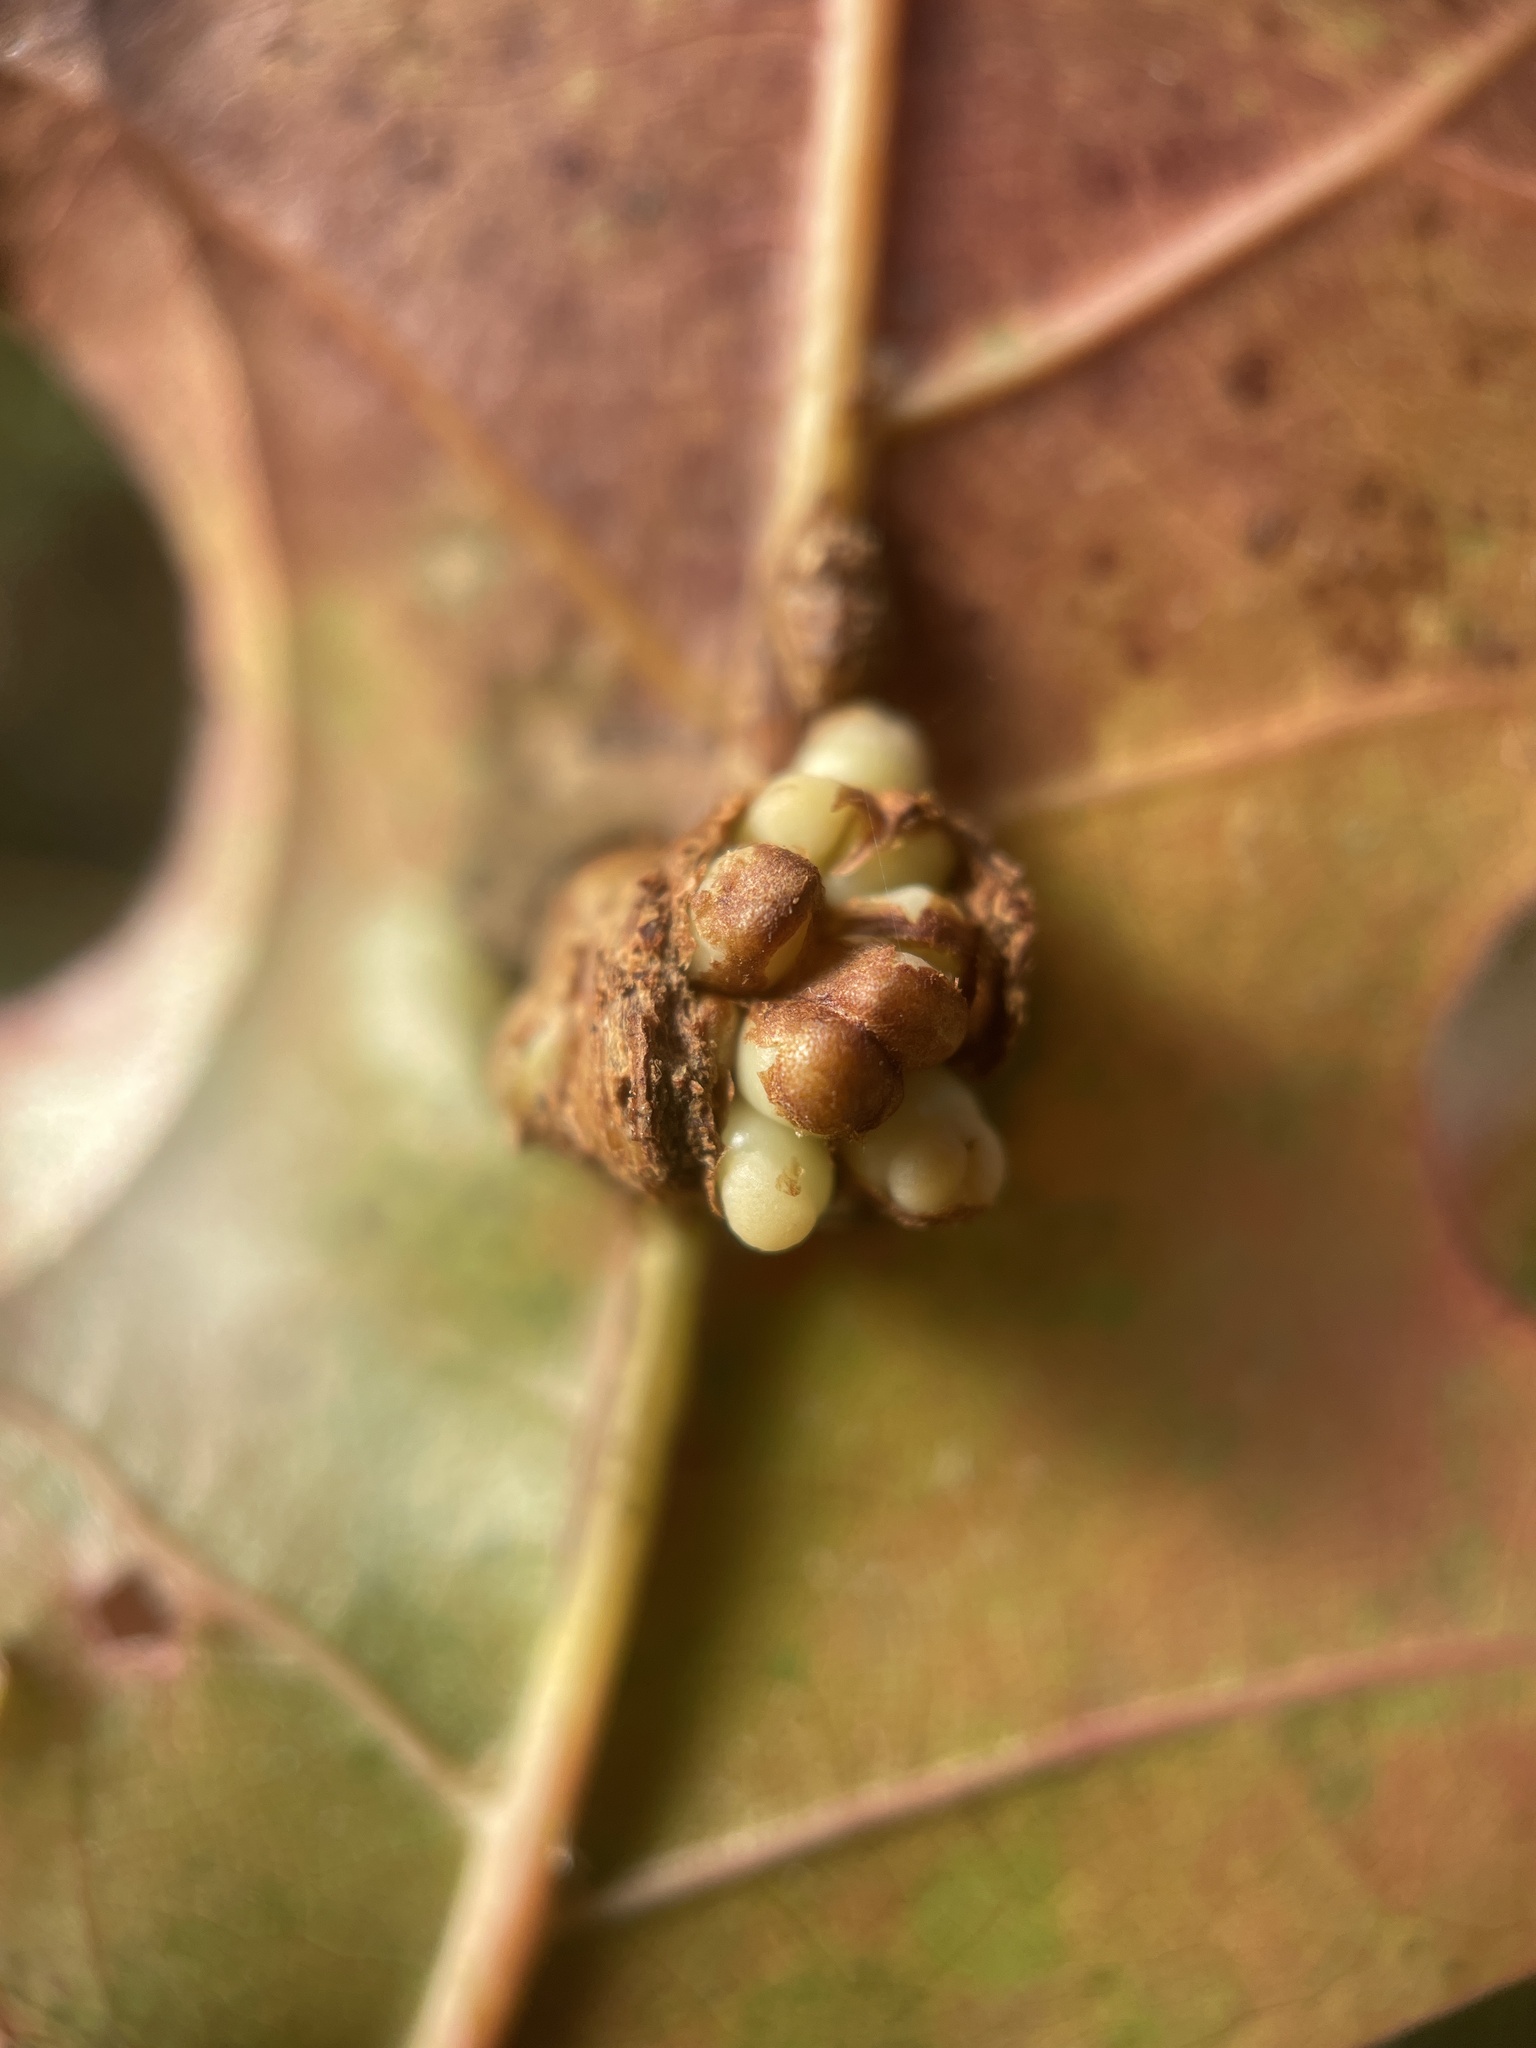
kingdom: Animalia
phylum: Arthropoda
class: Insecta
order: Hymenoptera
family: Cynipidae
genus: Kokkocynips
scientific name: Kokkocynips decidua
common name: Oak wheat gall
